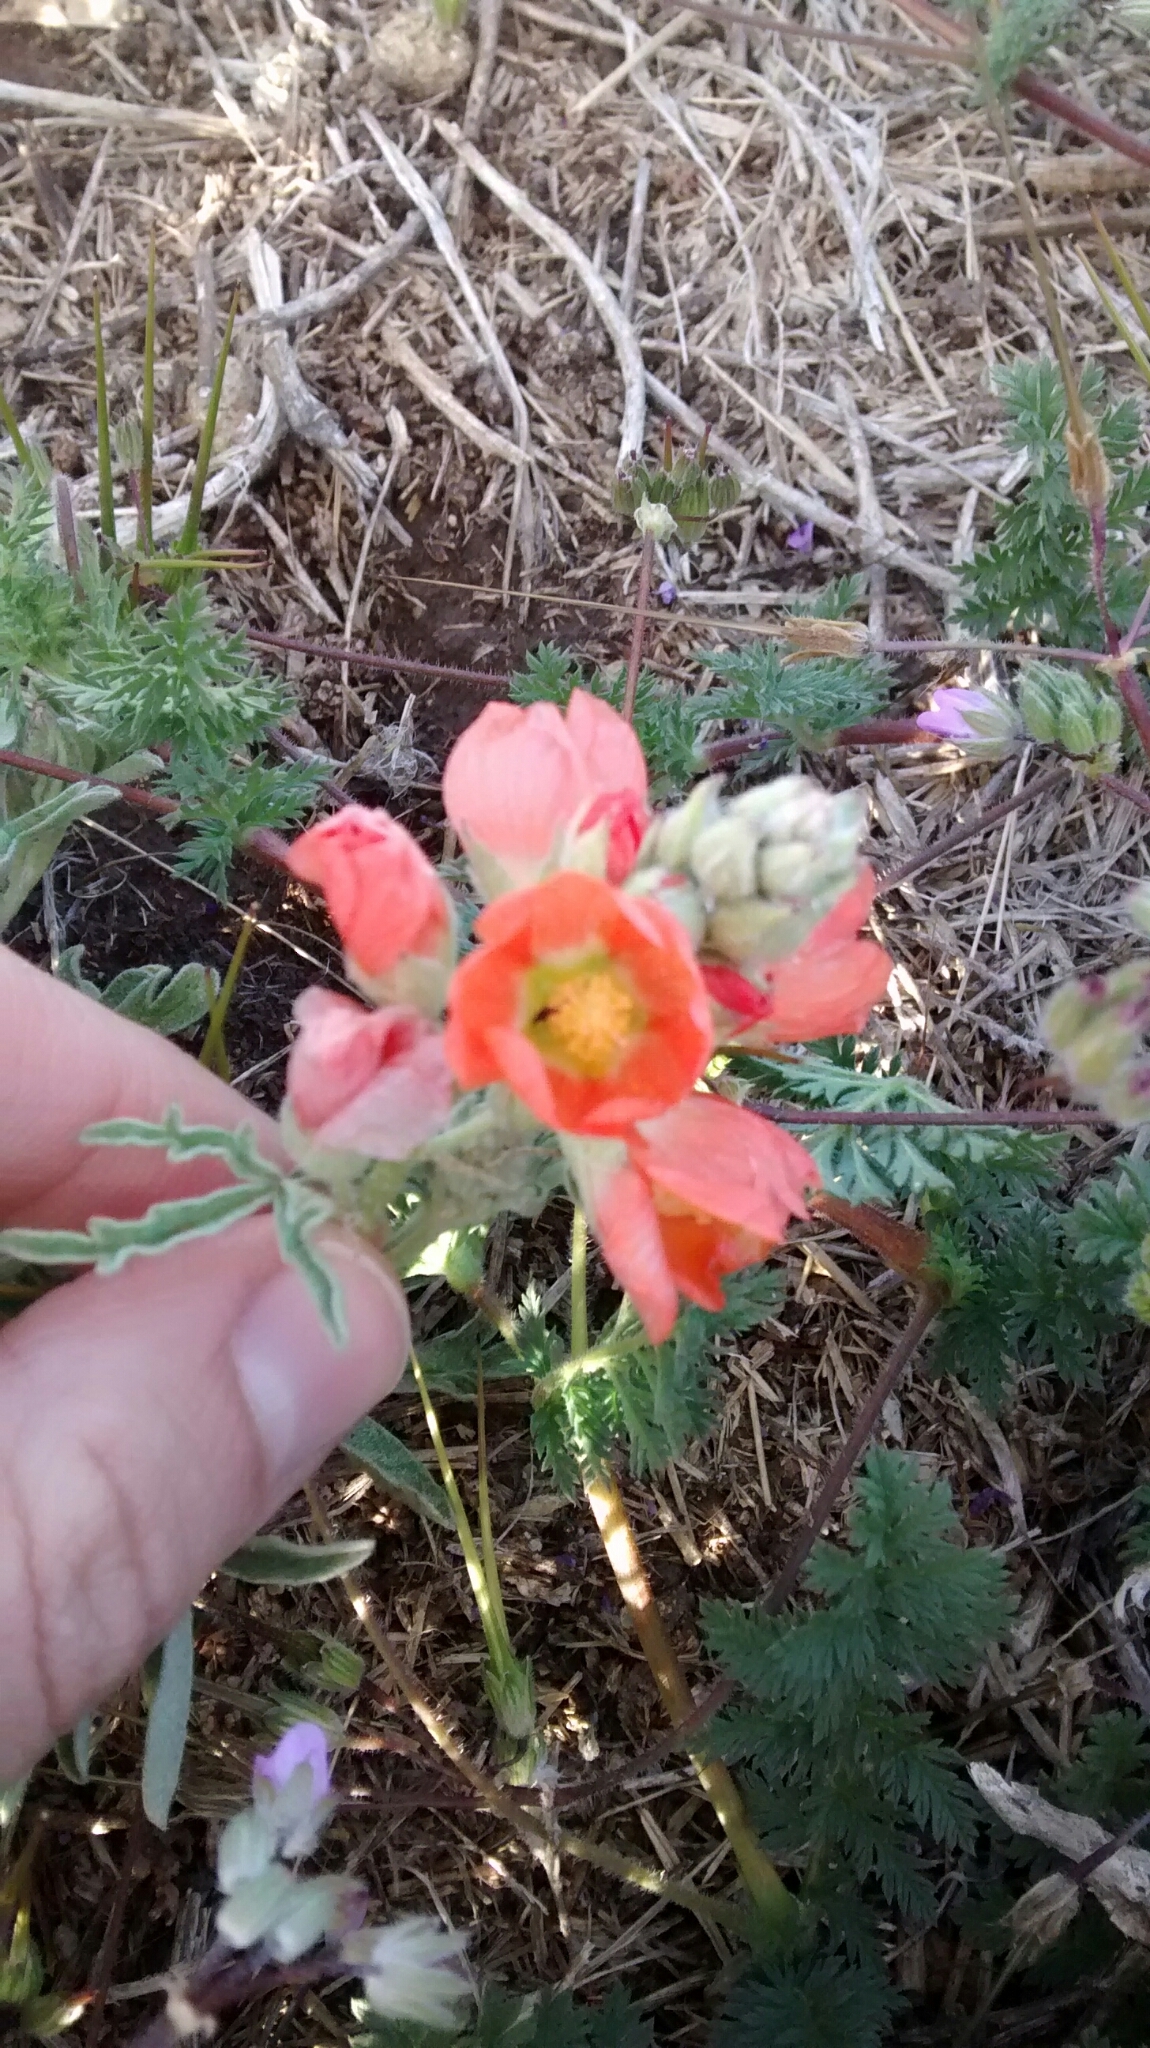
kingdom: Plantae
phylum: Tracheophyta
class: Magnoliopsida
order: Malvales
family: Malvaceae
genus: Sphaeralcea
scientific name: Sphaeralcea coccinea
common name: Moss-rose
